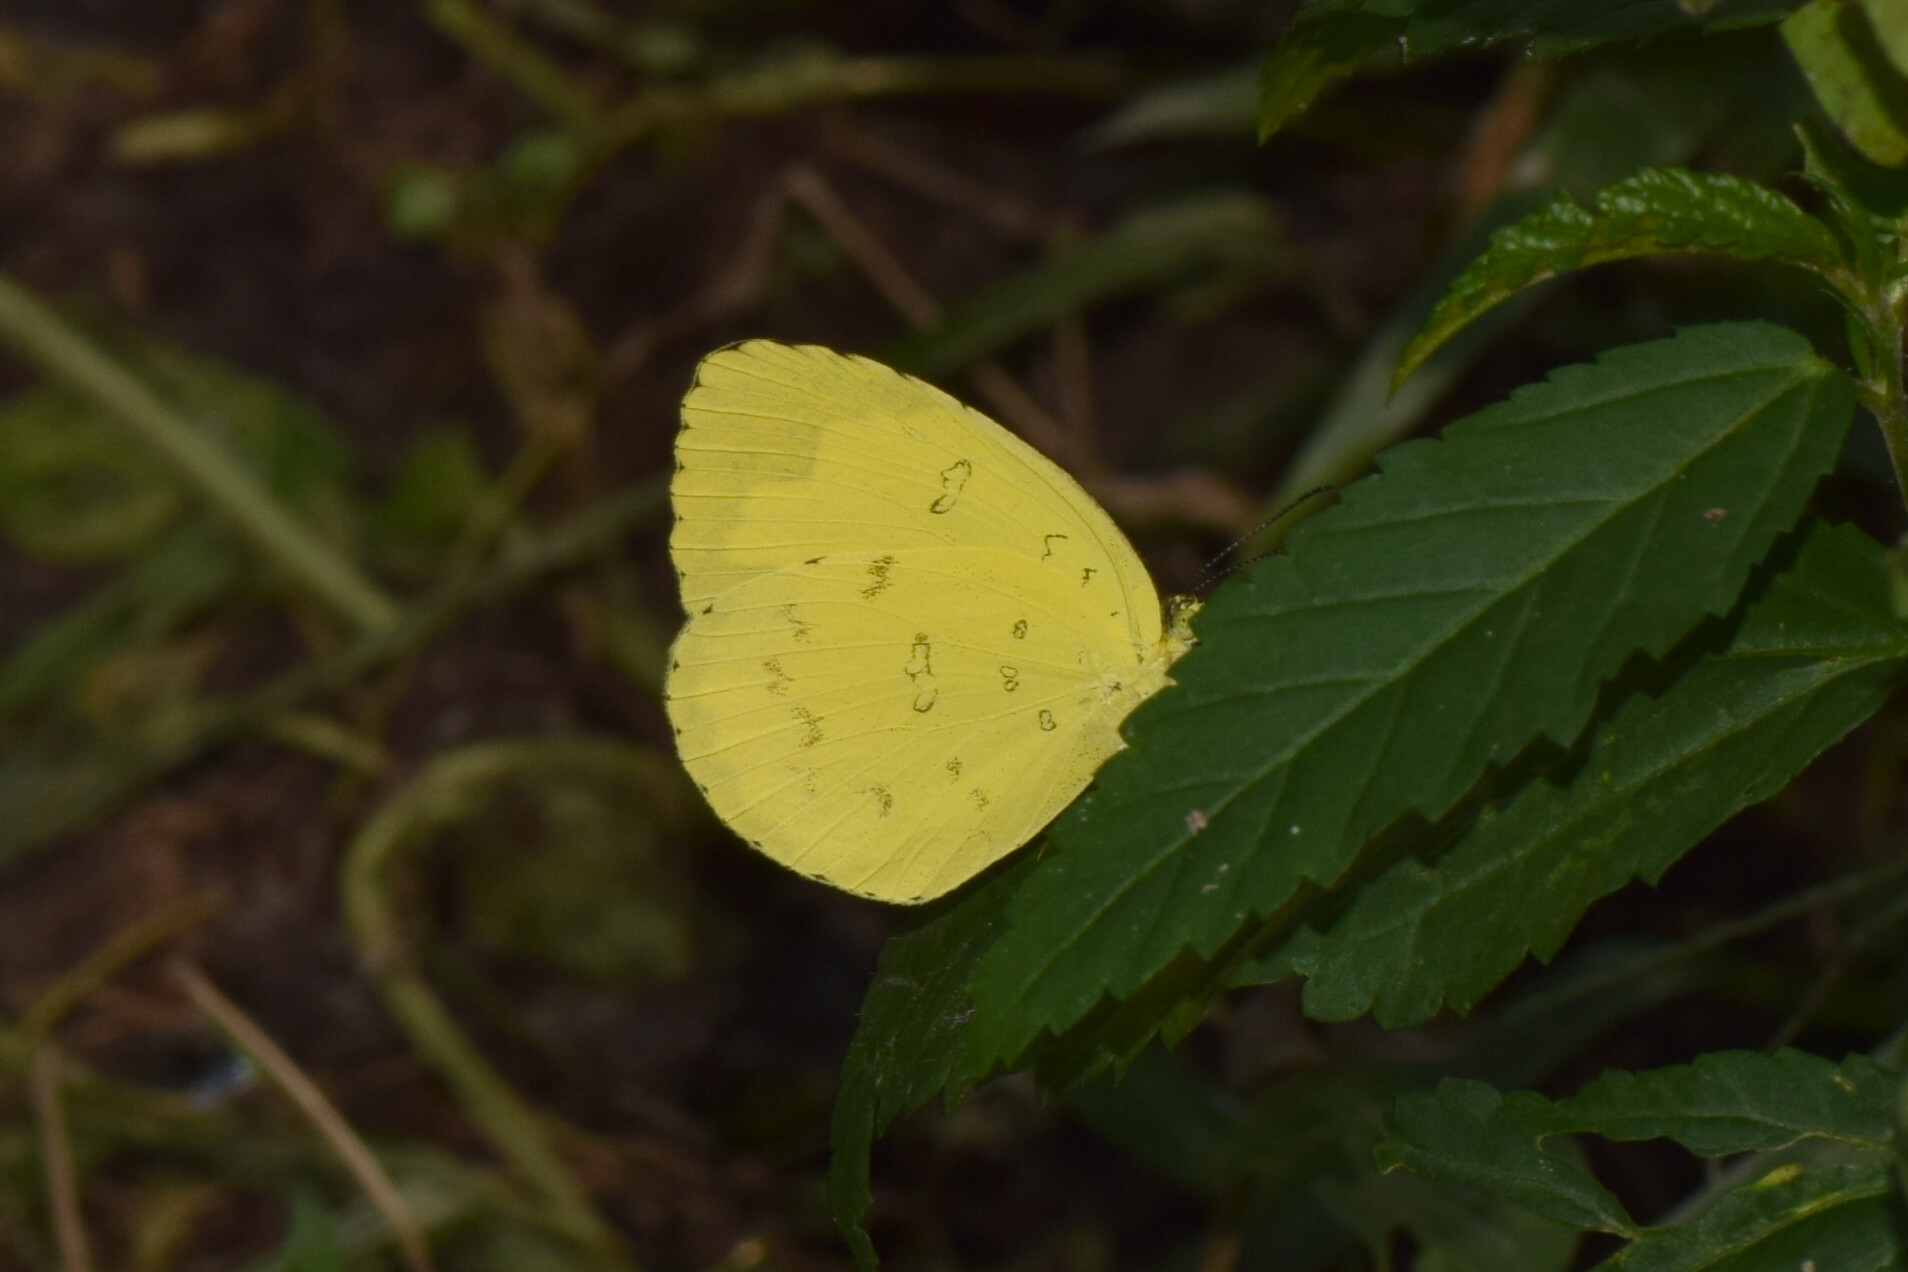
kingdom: Animalia
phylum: Arthropoda
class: Insecta
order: Lepidoptera
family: Pieridae
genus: Eurema
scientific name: Eurema blanda
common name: Three-spot grass yellow
